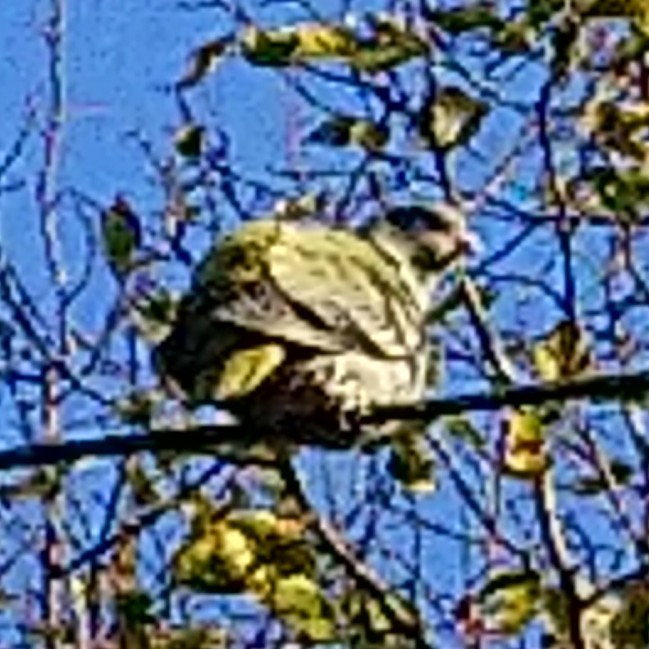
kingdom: Animalia
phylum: Chordata
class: Aves
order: Columbiformes
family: Columbidae
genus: Treron
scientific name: Treron calvus
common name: African green pigeon
